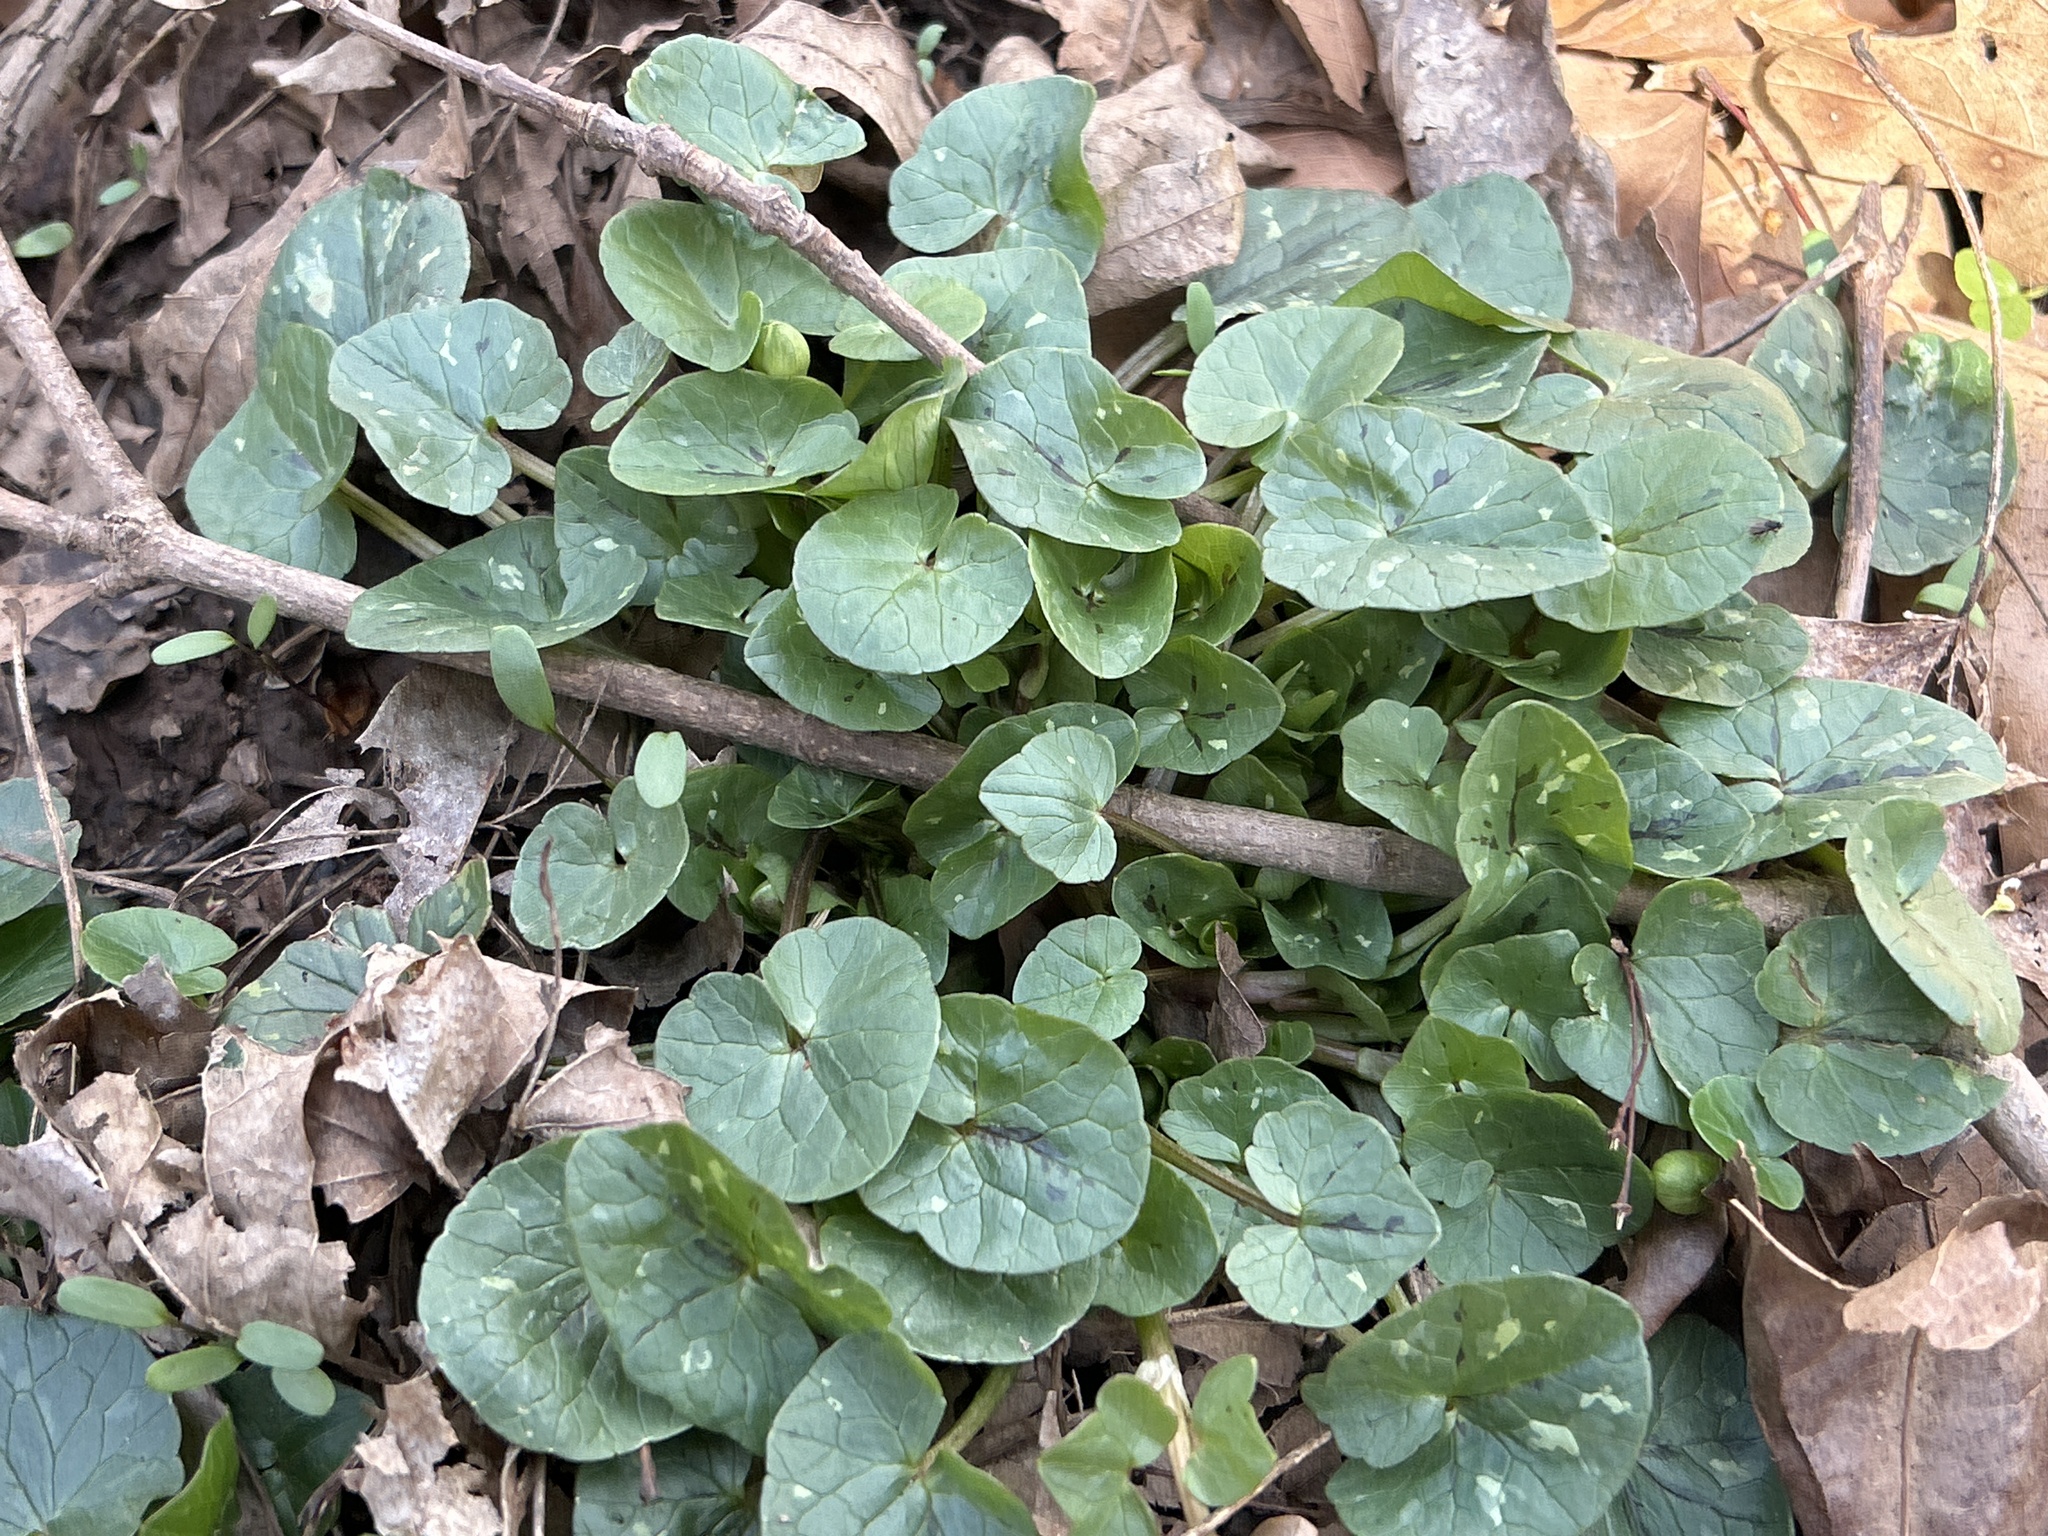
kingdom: Plantae
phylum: Tracheophyta
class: Magnoliopsida
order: Ranunculales
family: Ranunculaceae
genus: Ficaria
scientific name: Ficaria verna
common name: Lesser celandine
